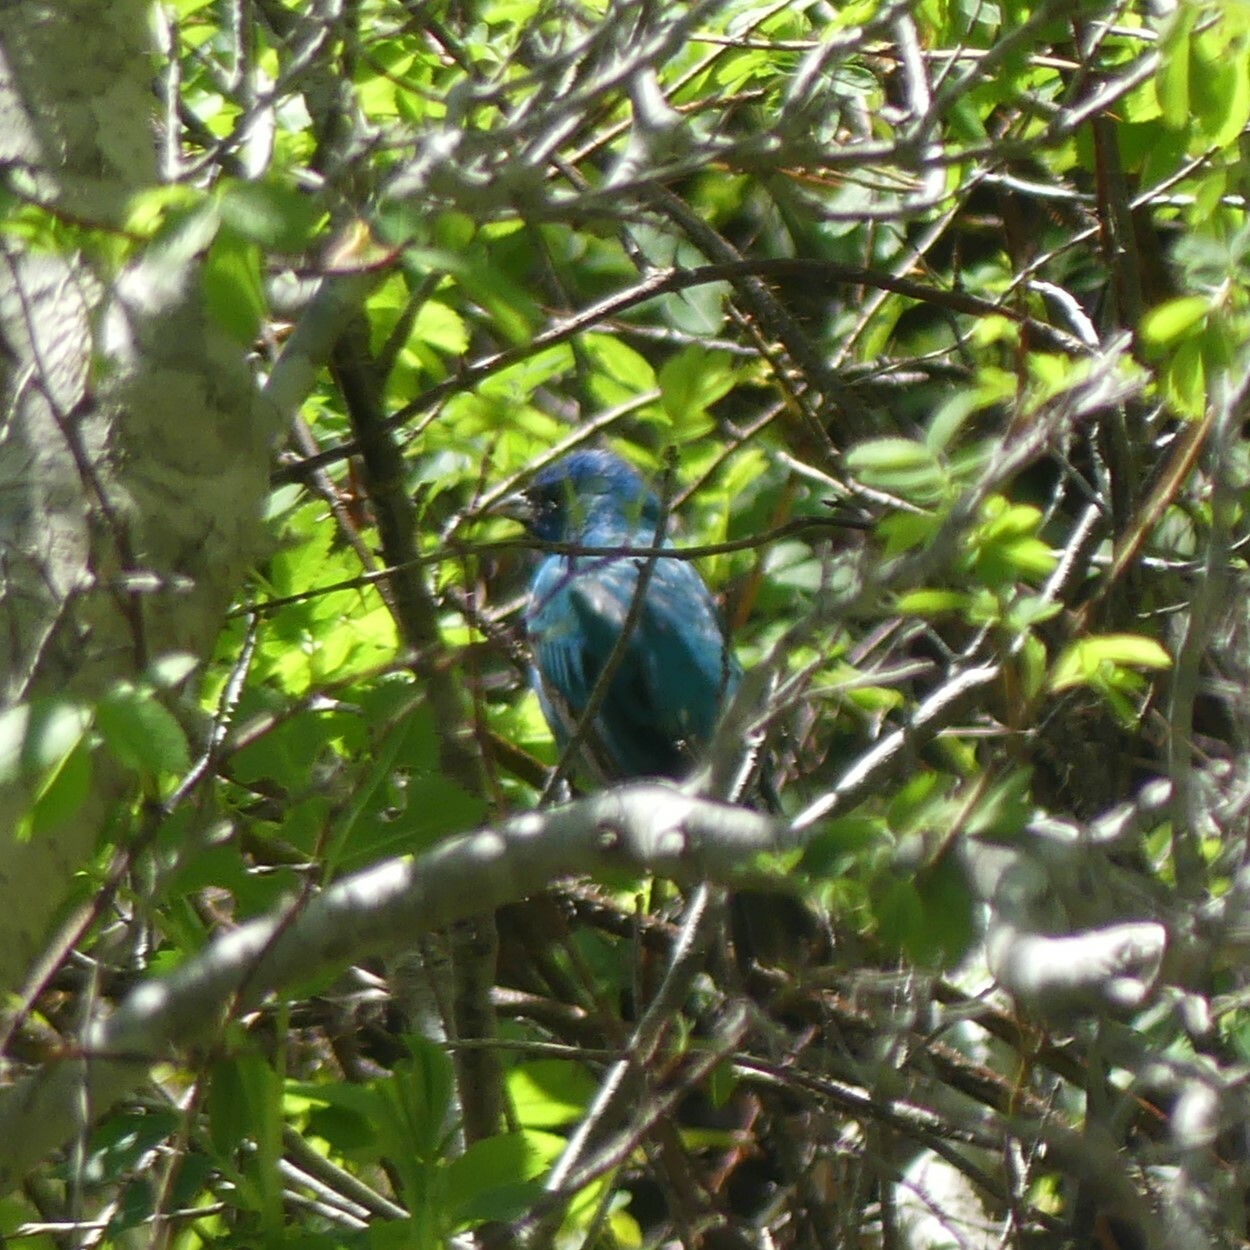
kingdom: Animalia
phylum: Chordata
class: Aves
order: Passeriformes
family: Cardinalidae
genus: Passerina
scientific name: Passerina cyanea
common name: Indigo bunting
